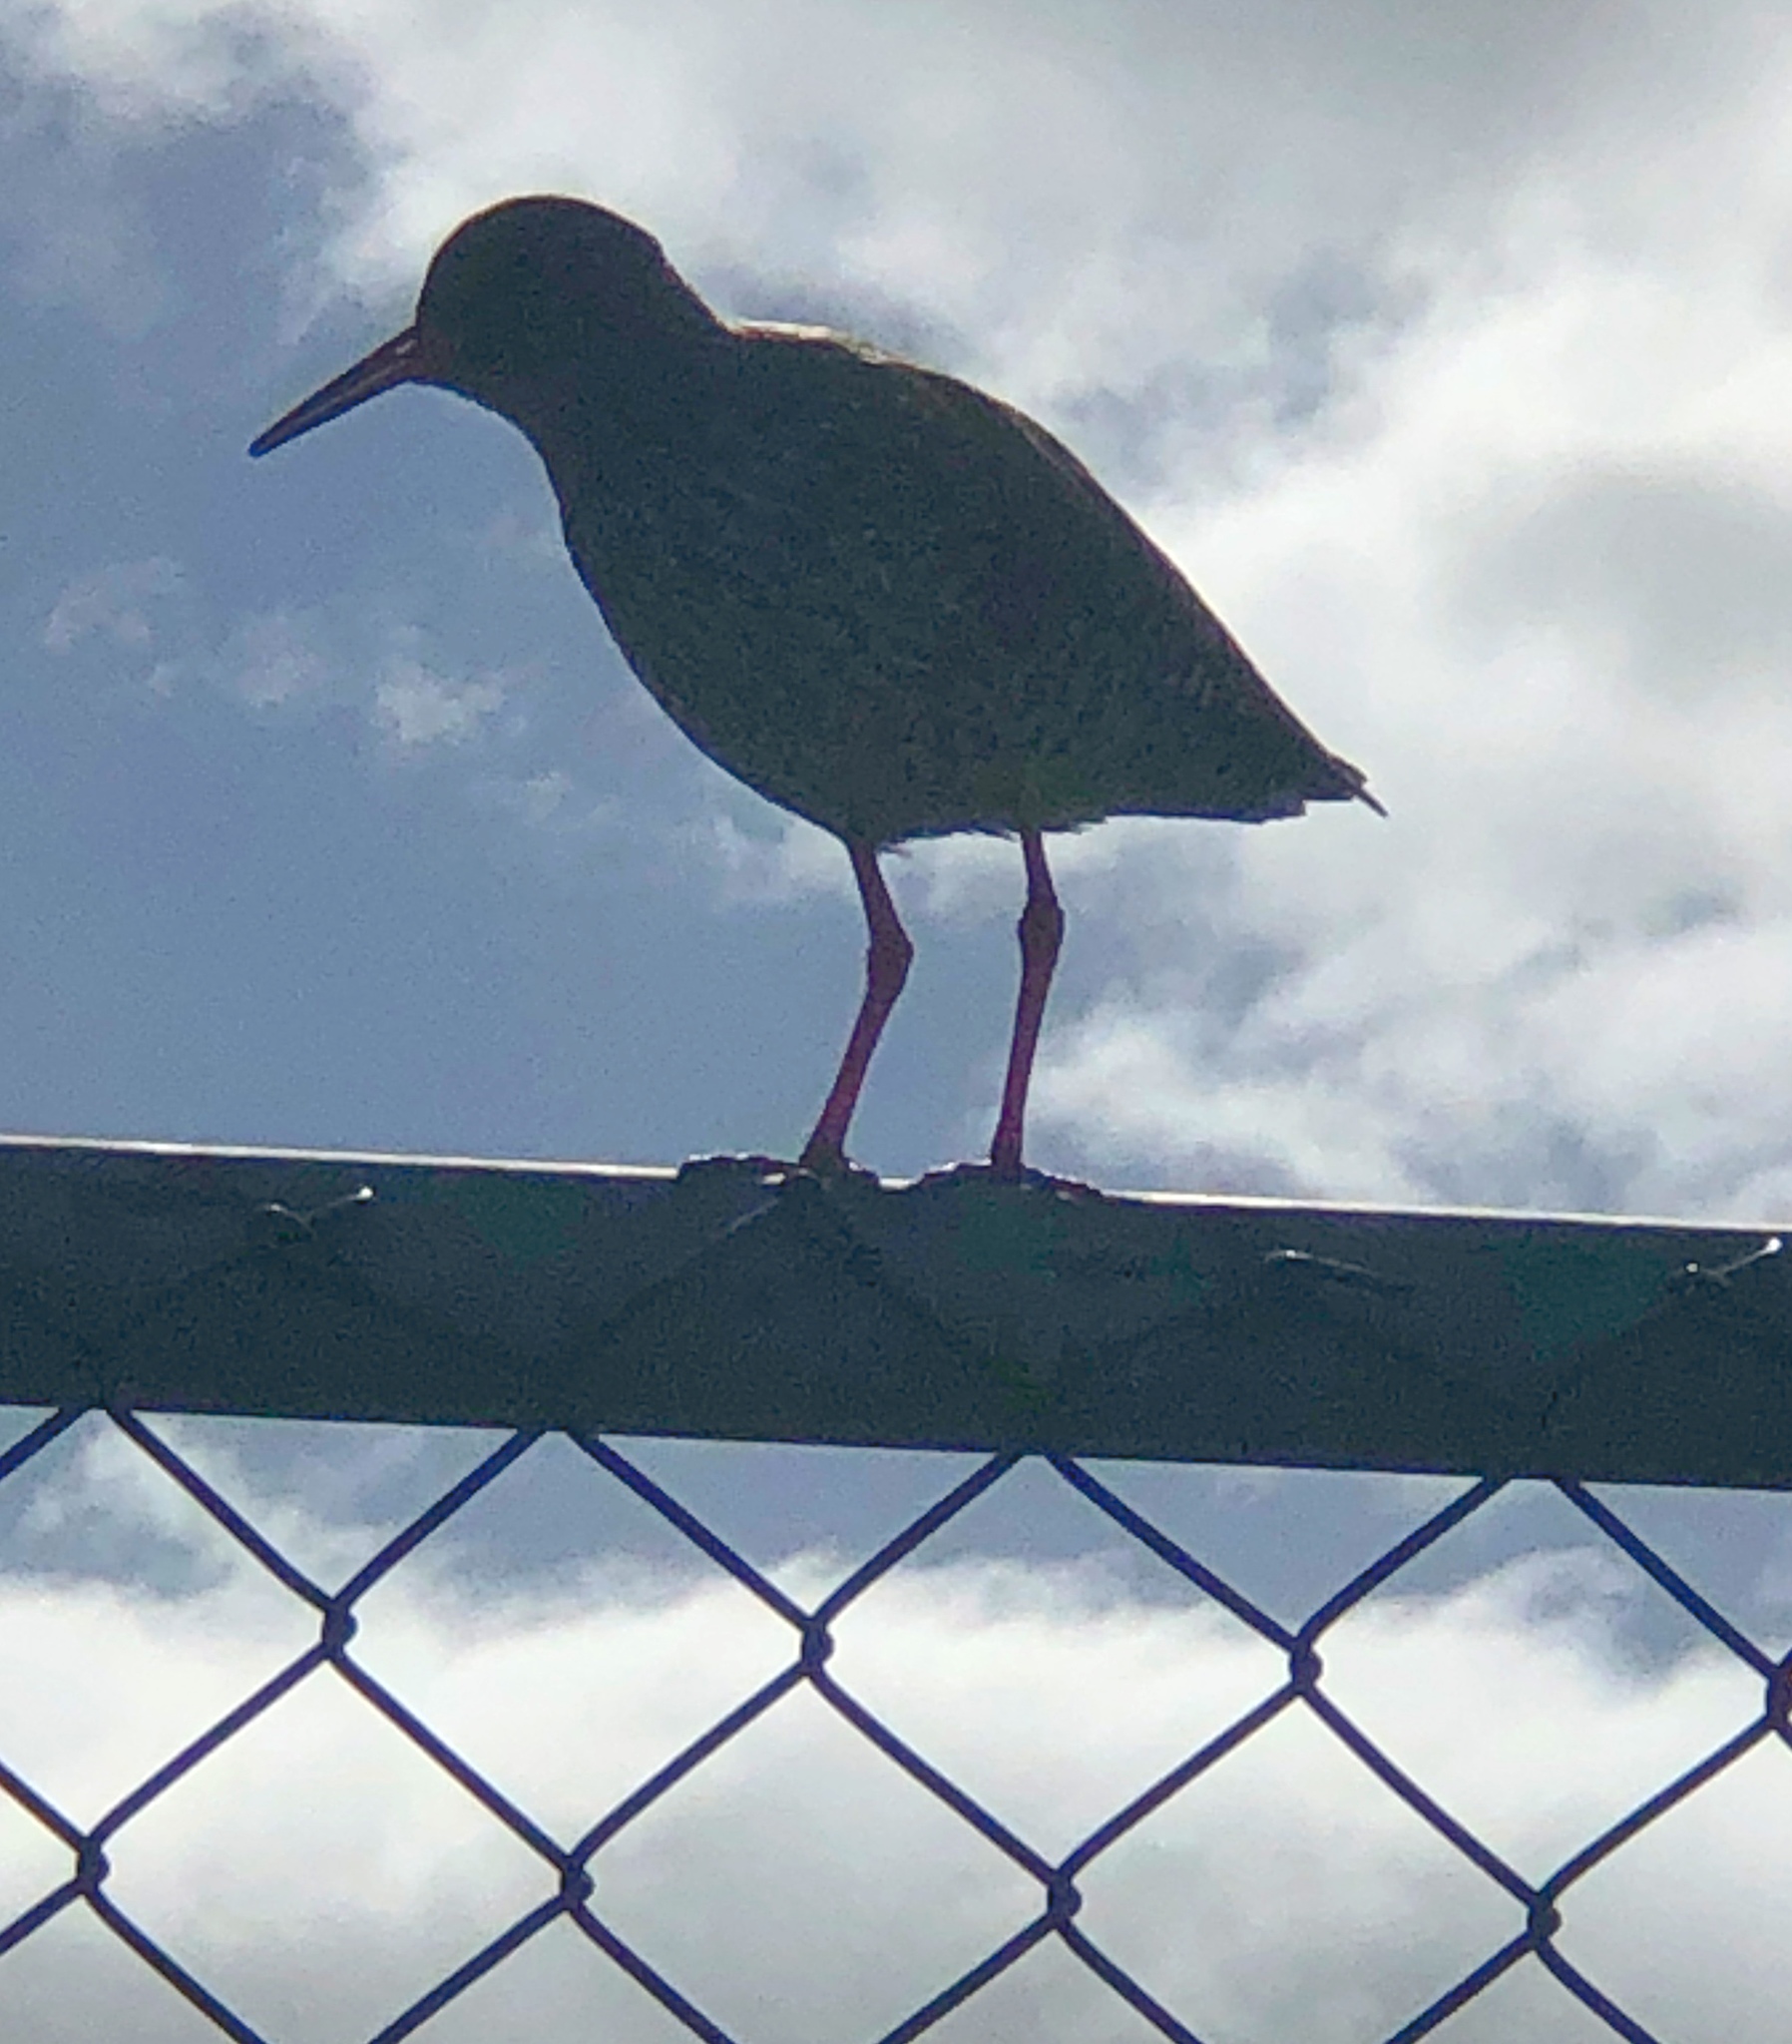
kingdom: Animalia
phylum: Chordata
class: Aves
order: Charadriiformes
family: Scolopacidae
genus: Tringa
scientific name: Tringa totanus
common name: Common redshank
